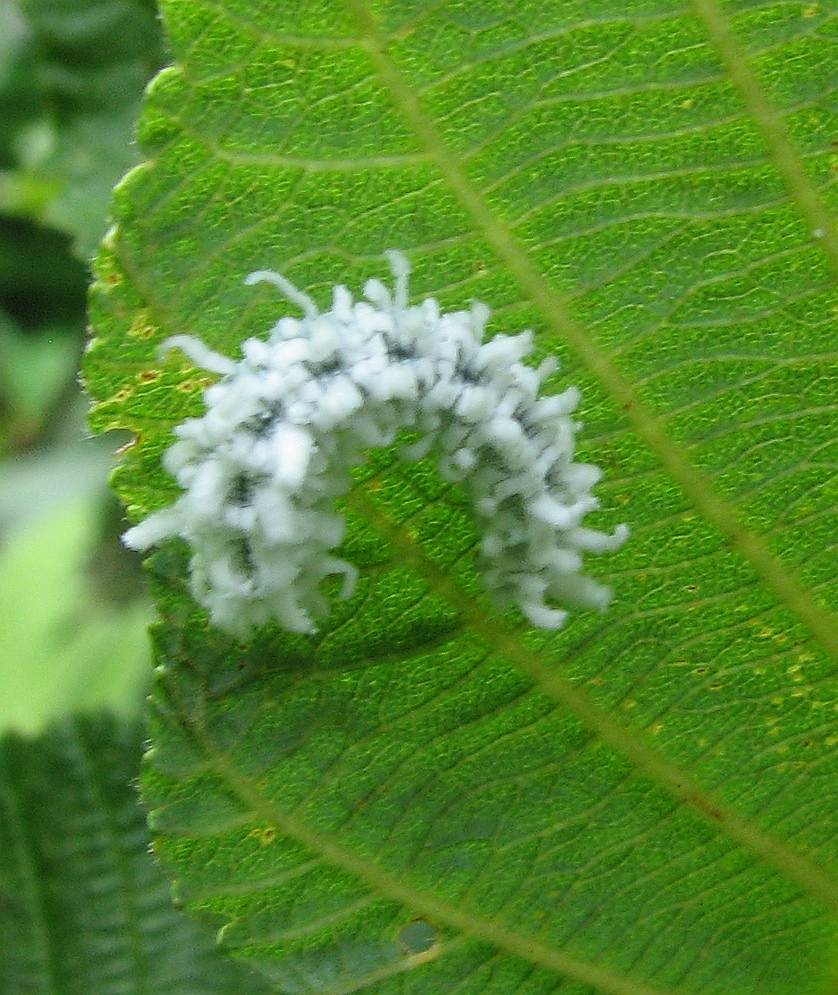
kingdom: Animalia
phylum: Arthropoda
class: Insecta
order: Hymenoptera
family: Tenthredinidae
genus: Eriocampa
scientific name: Eriocampa ovata
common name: Alder wooly sawfly
